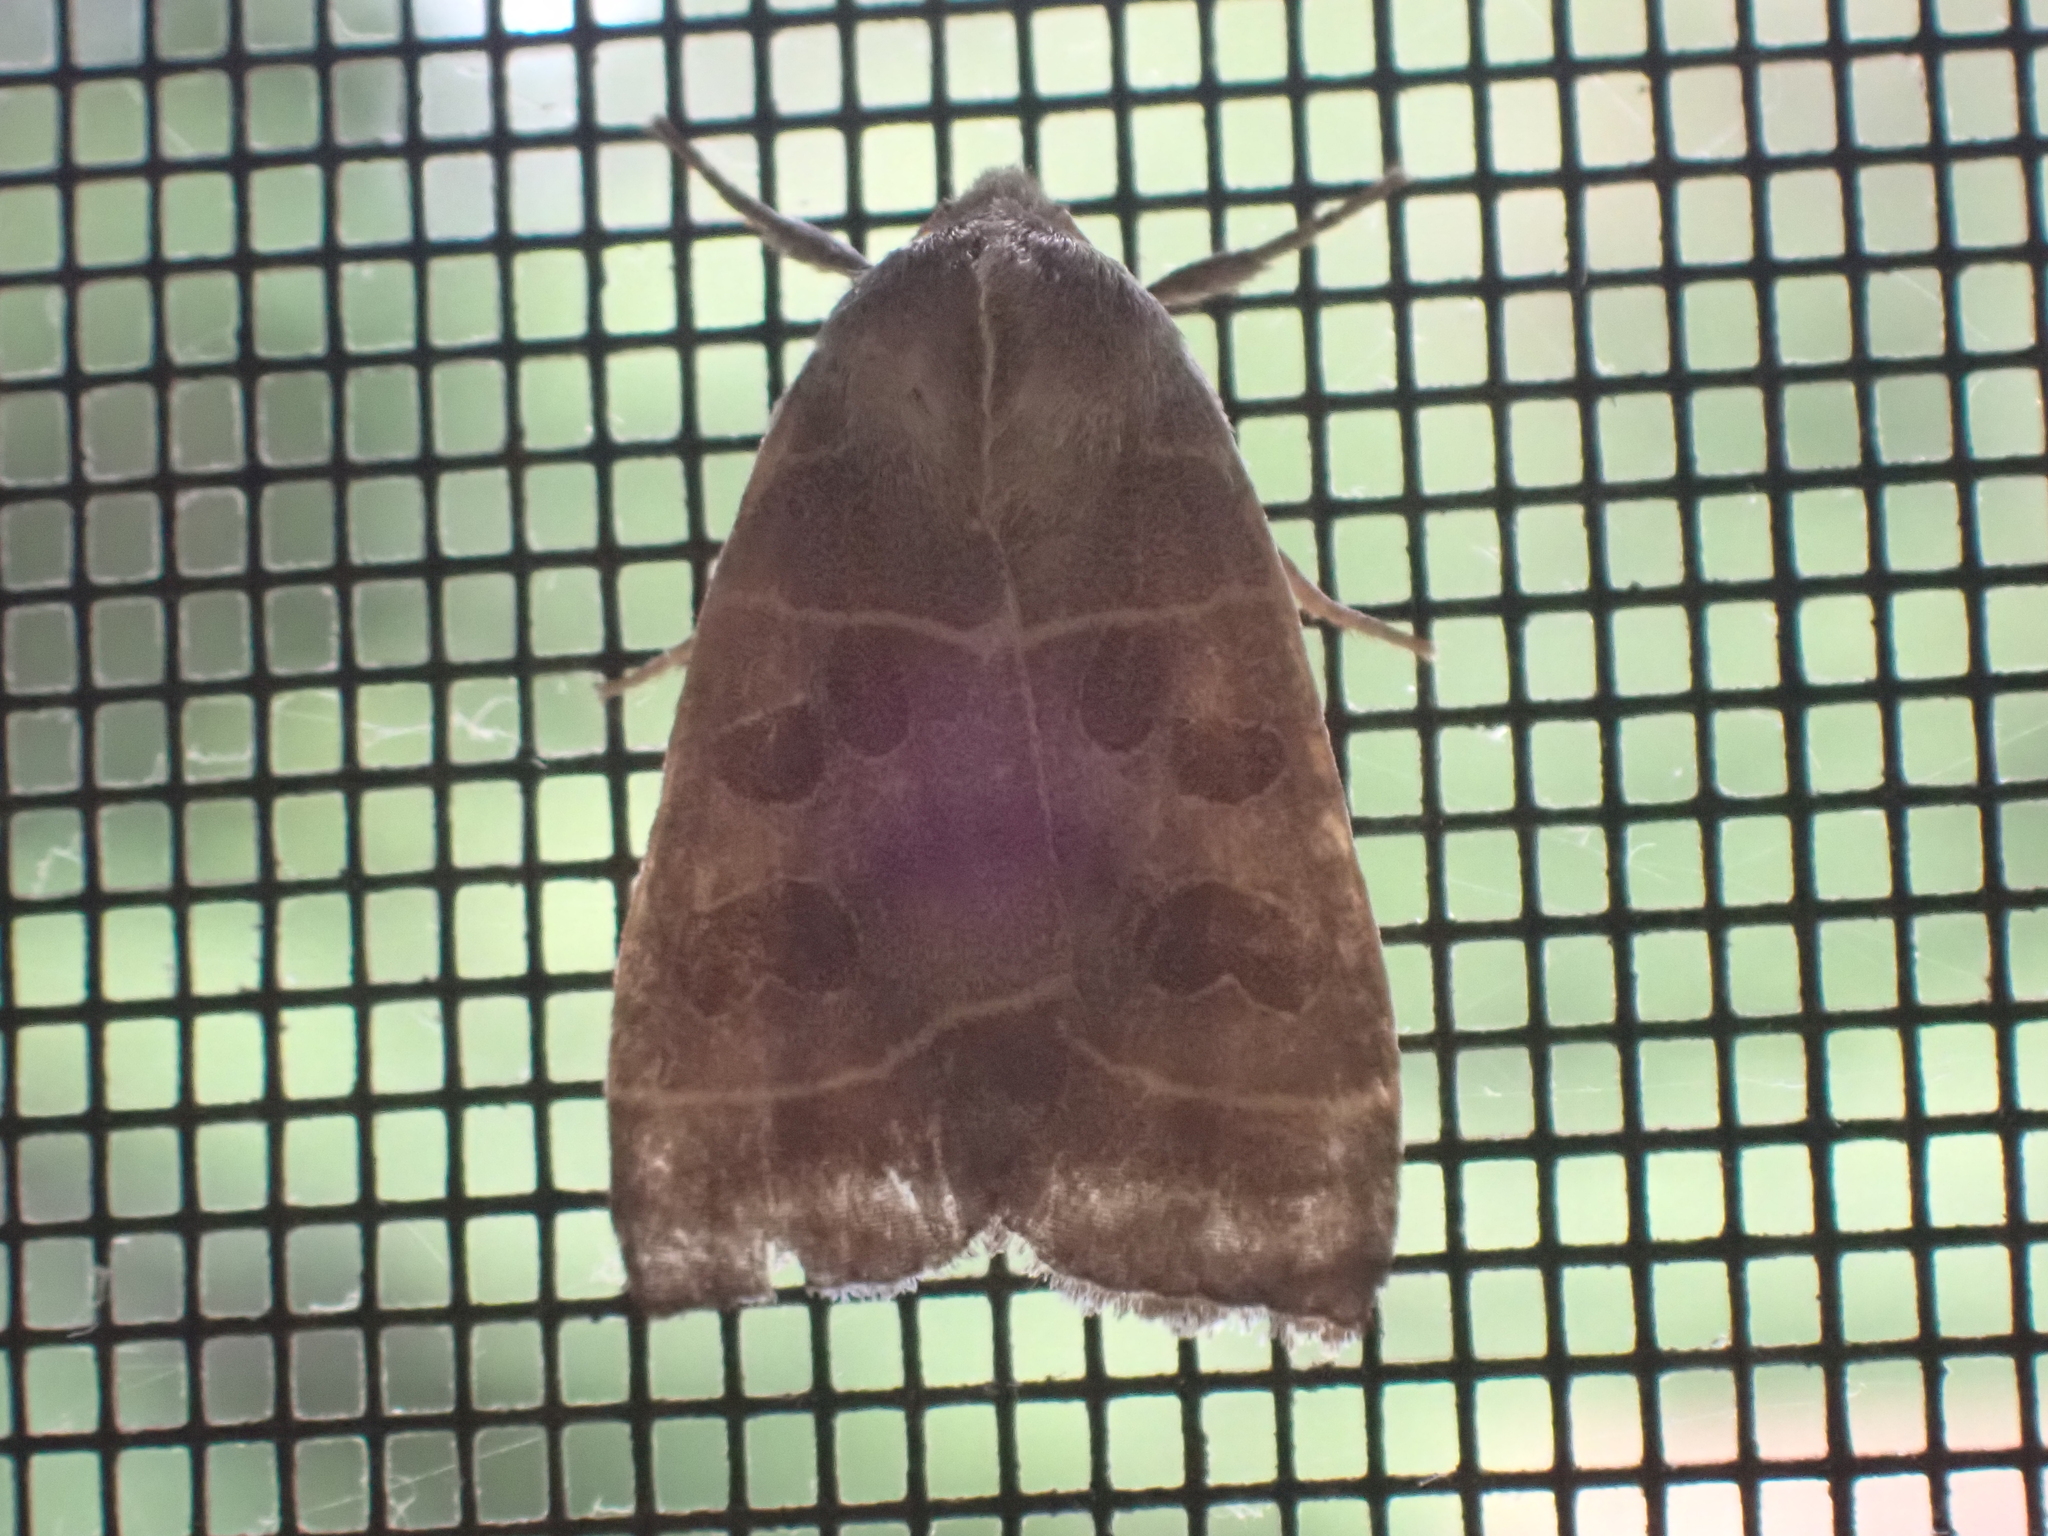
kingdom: Animalia
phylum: Arthropoda
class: Insecta
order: Lepidoptera
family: Noctuidae
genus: Ipimorpha
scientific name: Ipimorpha pleonectusa
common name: Even-lined sallow
